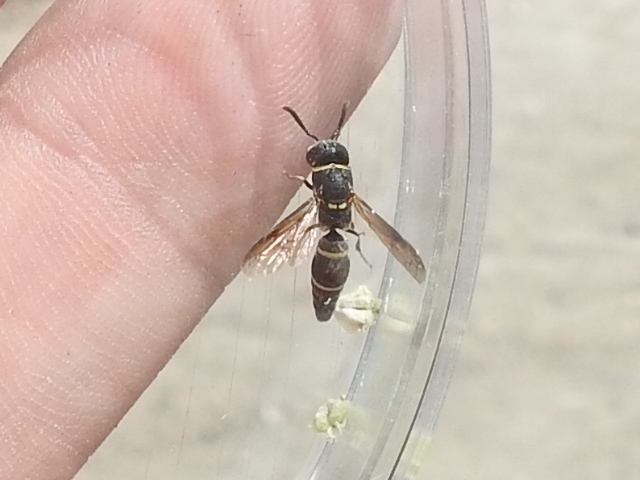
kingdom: Animalia
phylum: Arthropoda
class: Insecta
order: Hymenoptera
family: Eumenidae
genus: Hypalastoroides
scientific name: Hypalastoroides mexicanus
